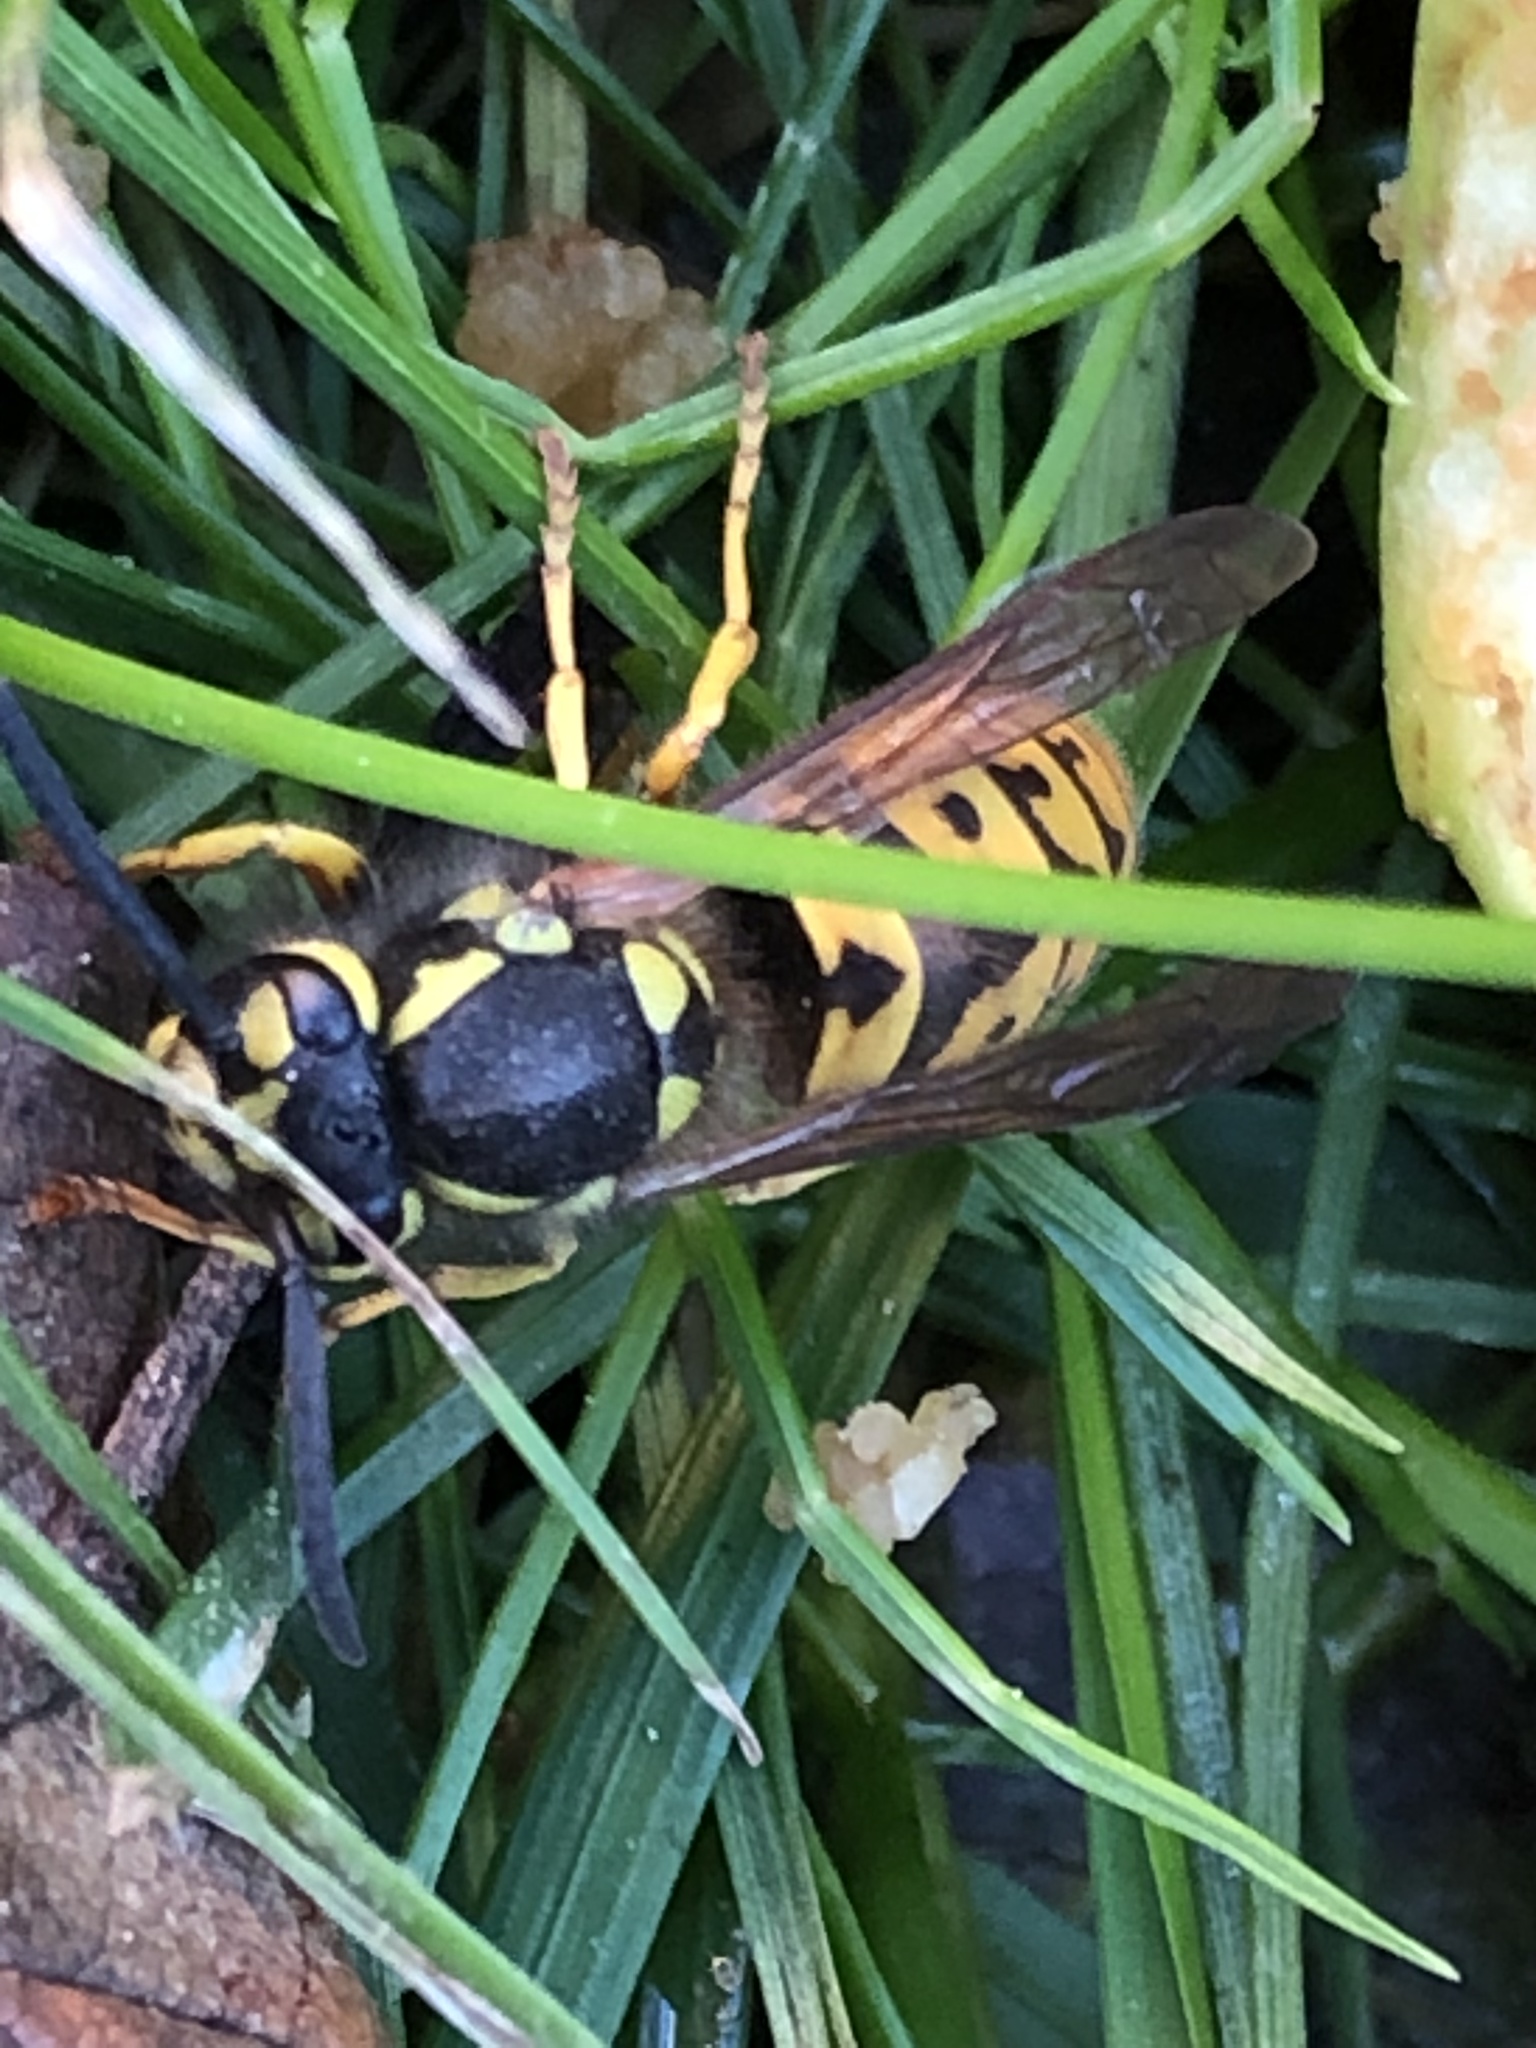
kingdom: Animalia
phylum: Arthropoda
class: Insecta
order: Hymenoptera
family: Vespidae
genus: Vespula
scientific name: Vespula germanica
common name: German wasp
